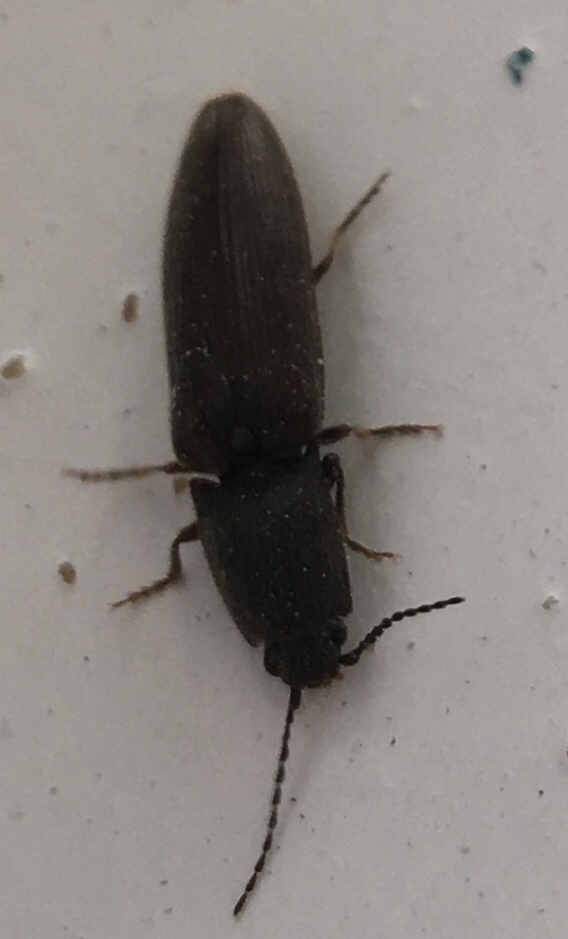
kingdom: Animalia
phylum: Arthropoda
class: Insecta
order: Coleoptera
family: Elateridae
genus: Athous
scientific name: Athous haemorrhoidalis
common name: Red-brown click beetle
